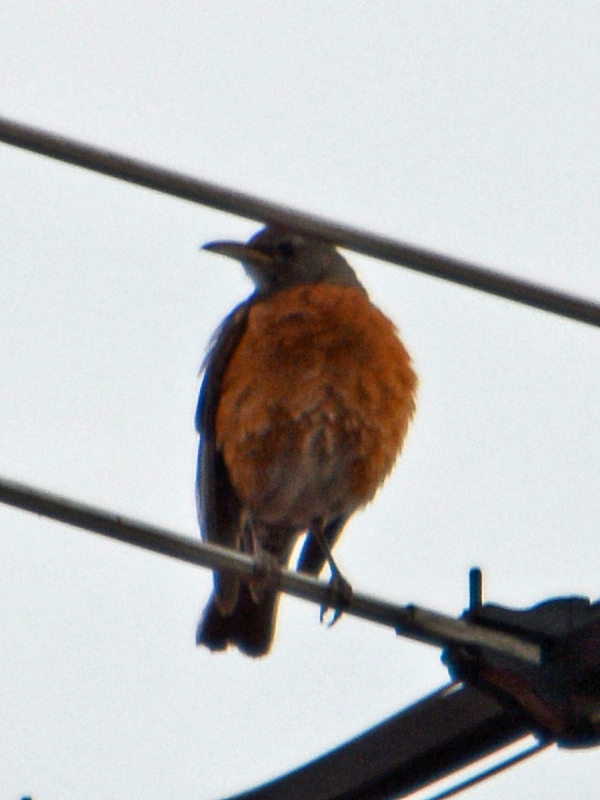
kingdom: Animalia
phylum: Chordata
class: Aves
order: Passeriformes
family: Turdidae
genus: Turdus
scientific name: Turdus migratorius
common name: American robin
